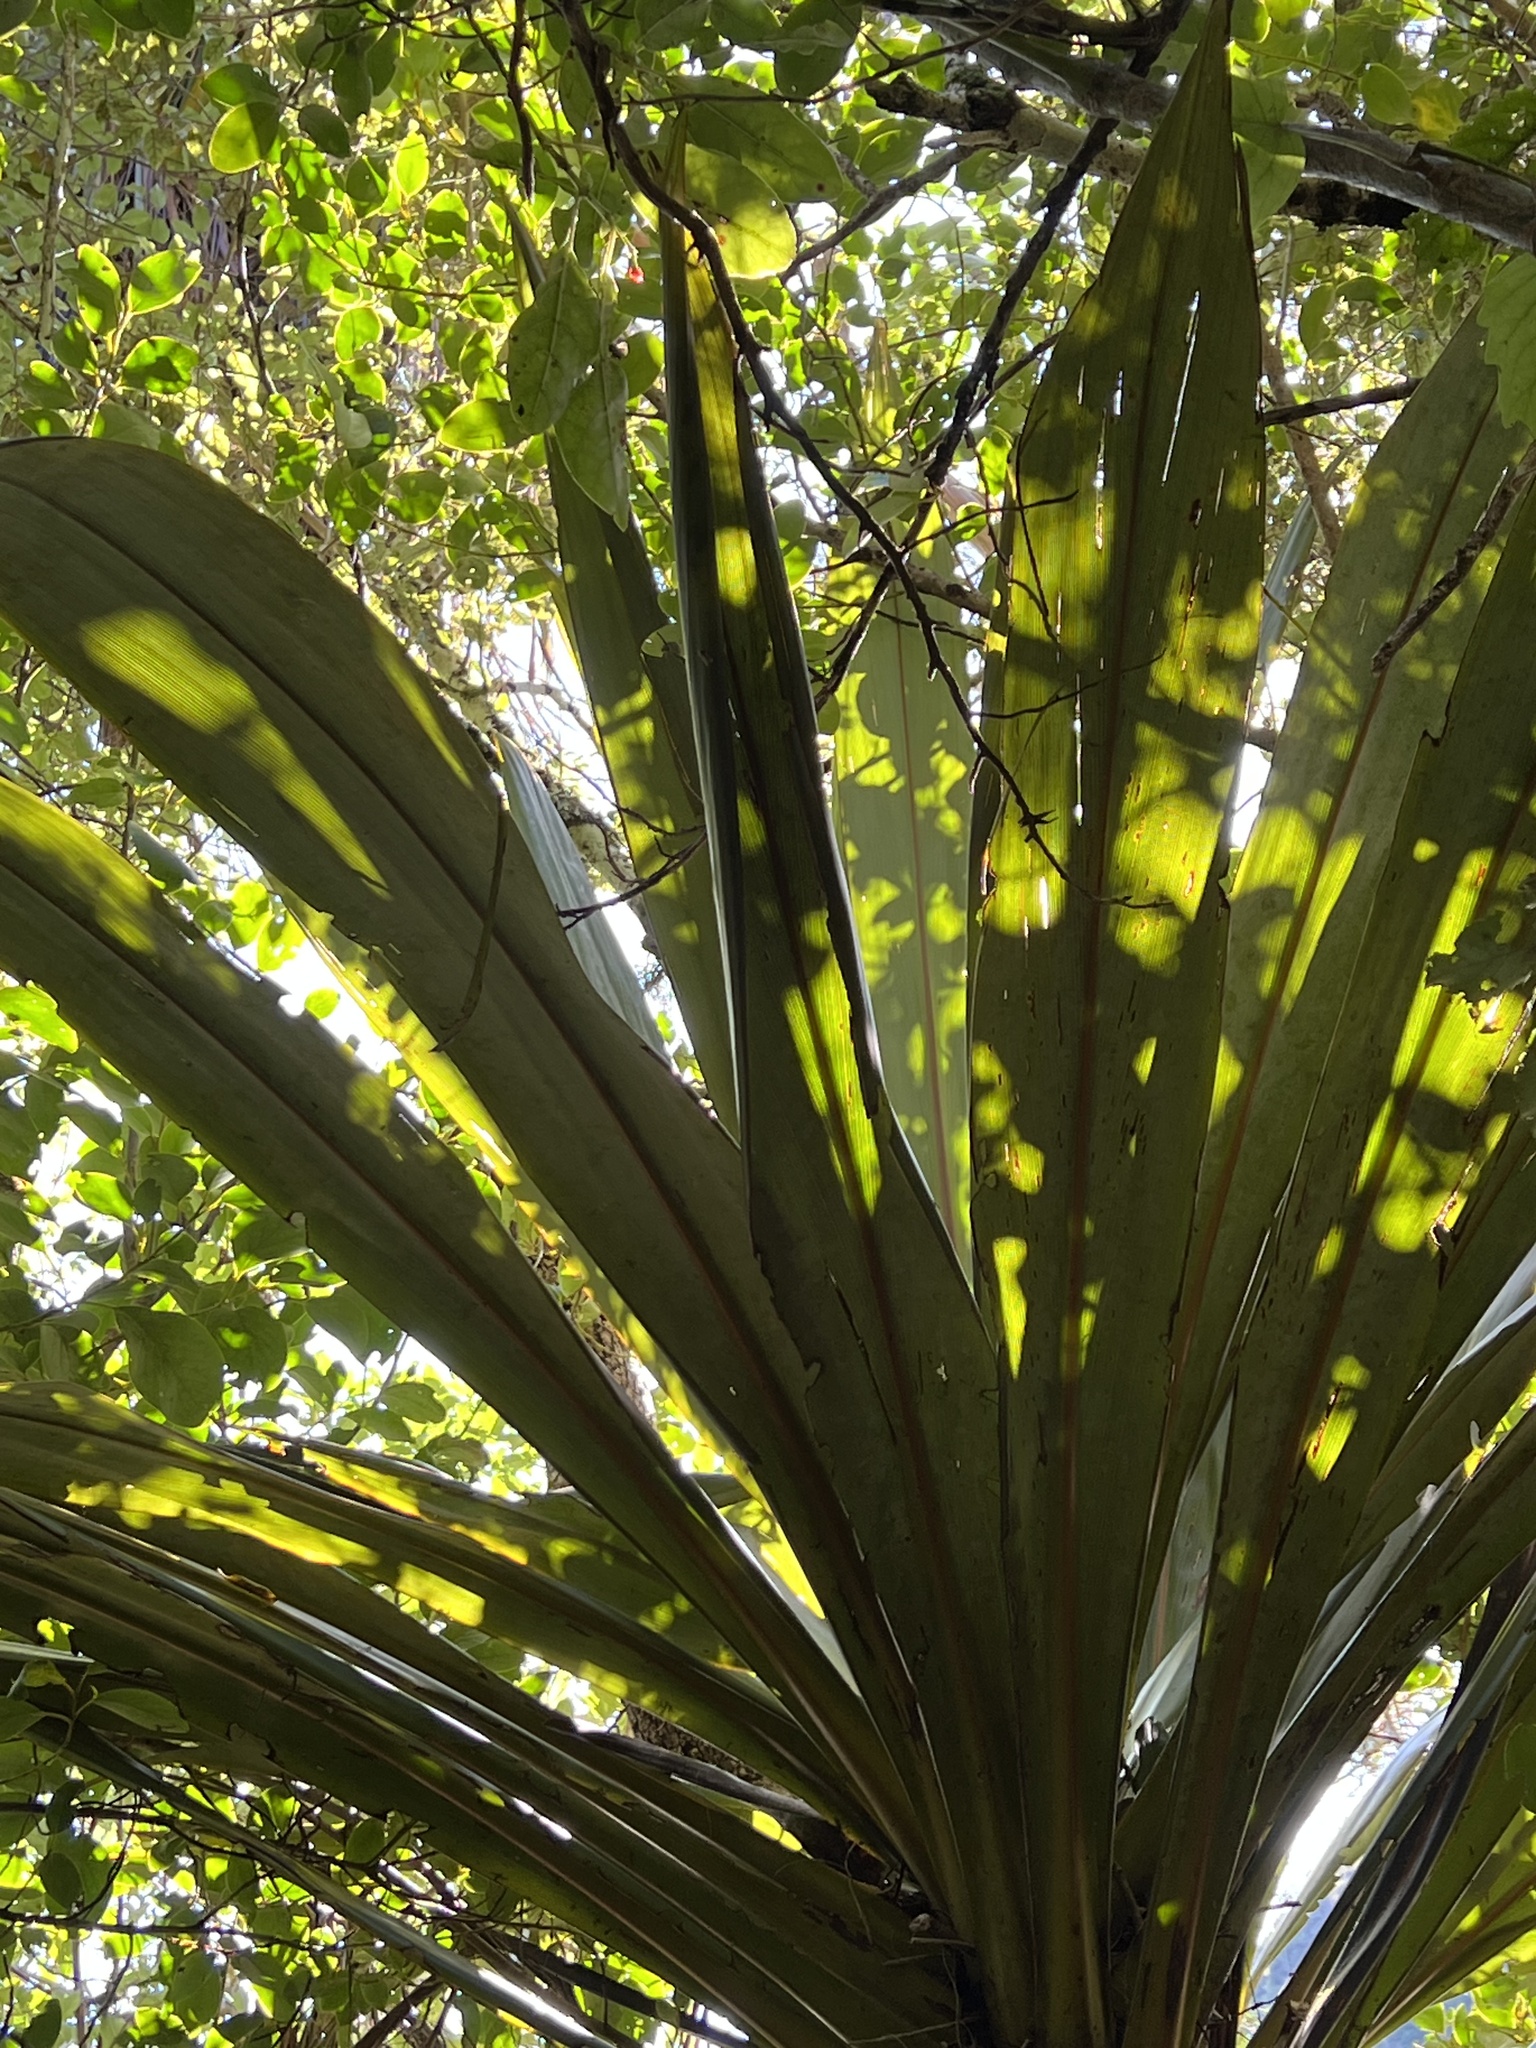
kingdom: Plantae
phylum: Tracheophyta
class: Liliopsida
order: Asparagales
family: Asparagaceae
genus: Cordyline
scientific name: Cordyline indivisa
